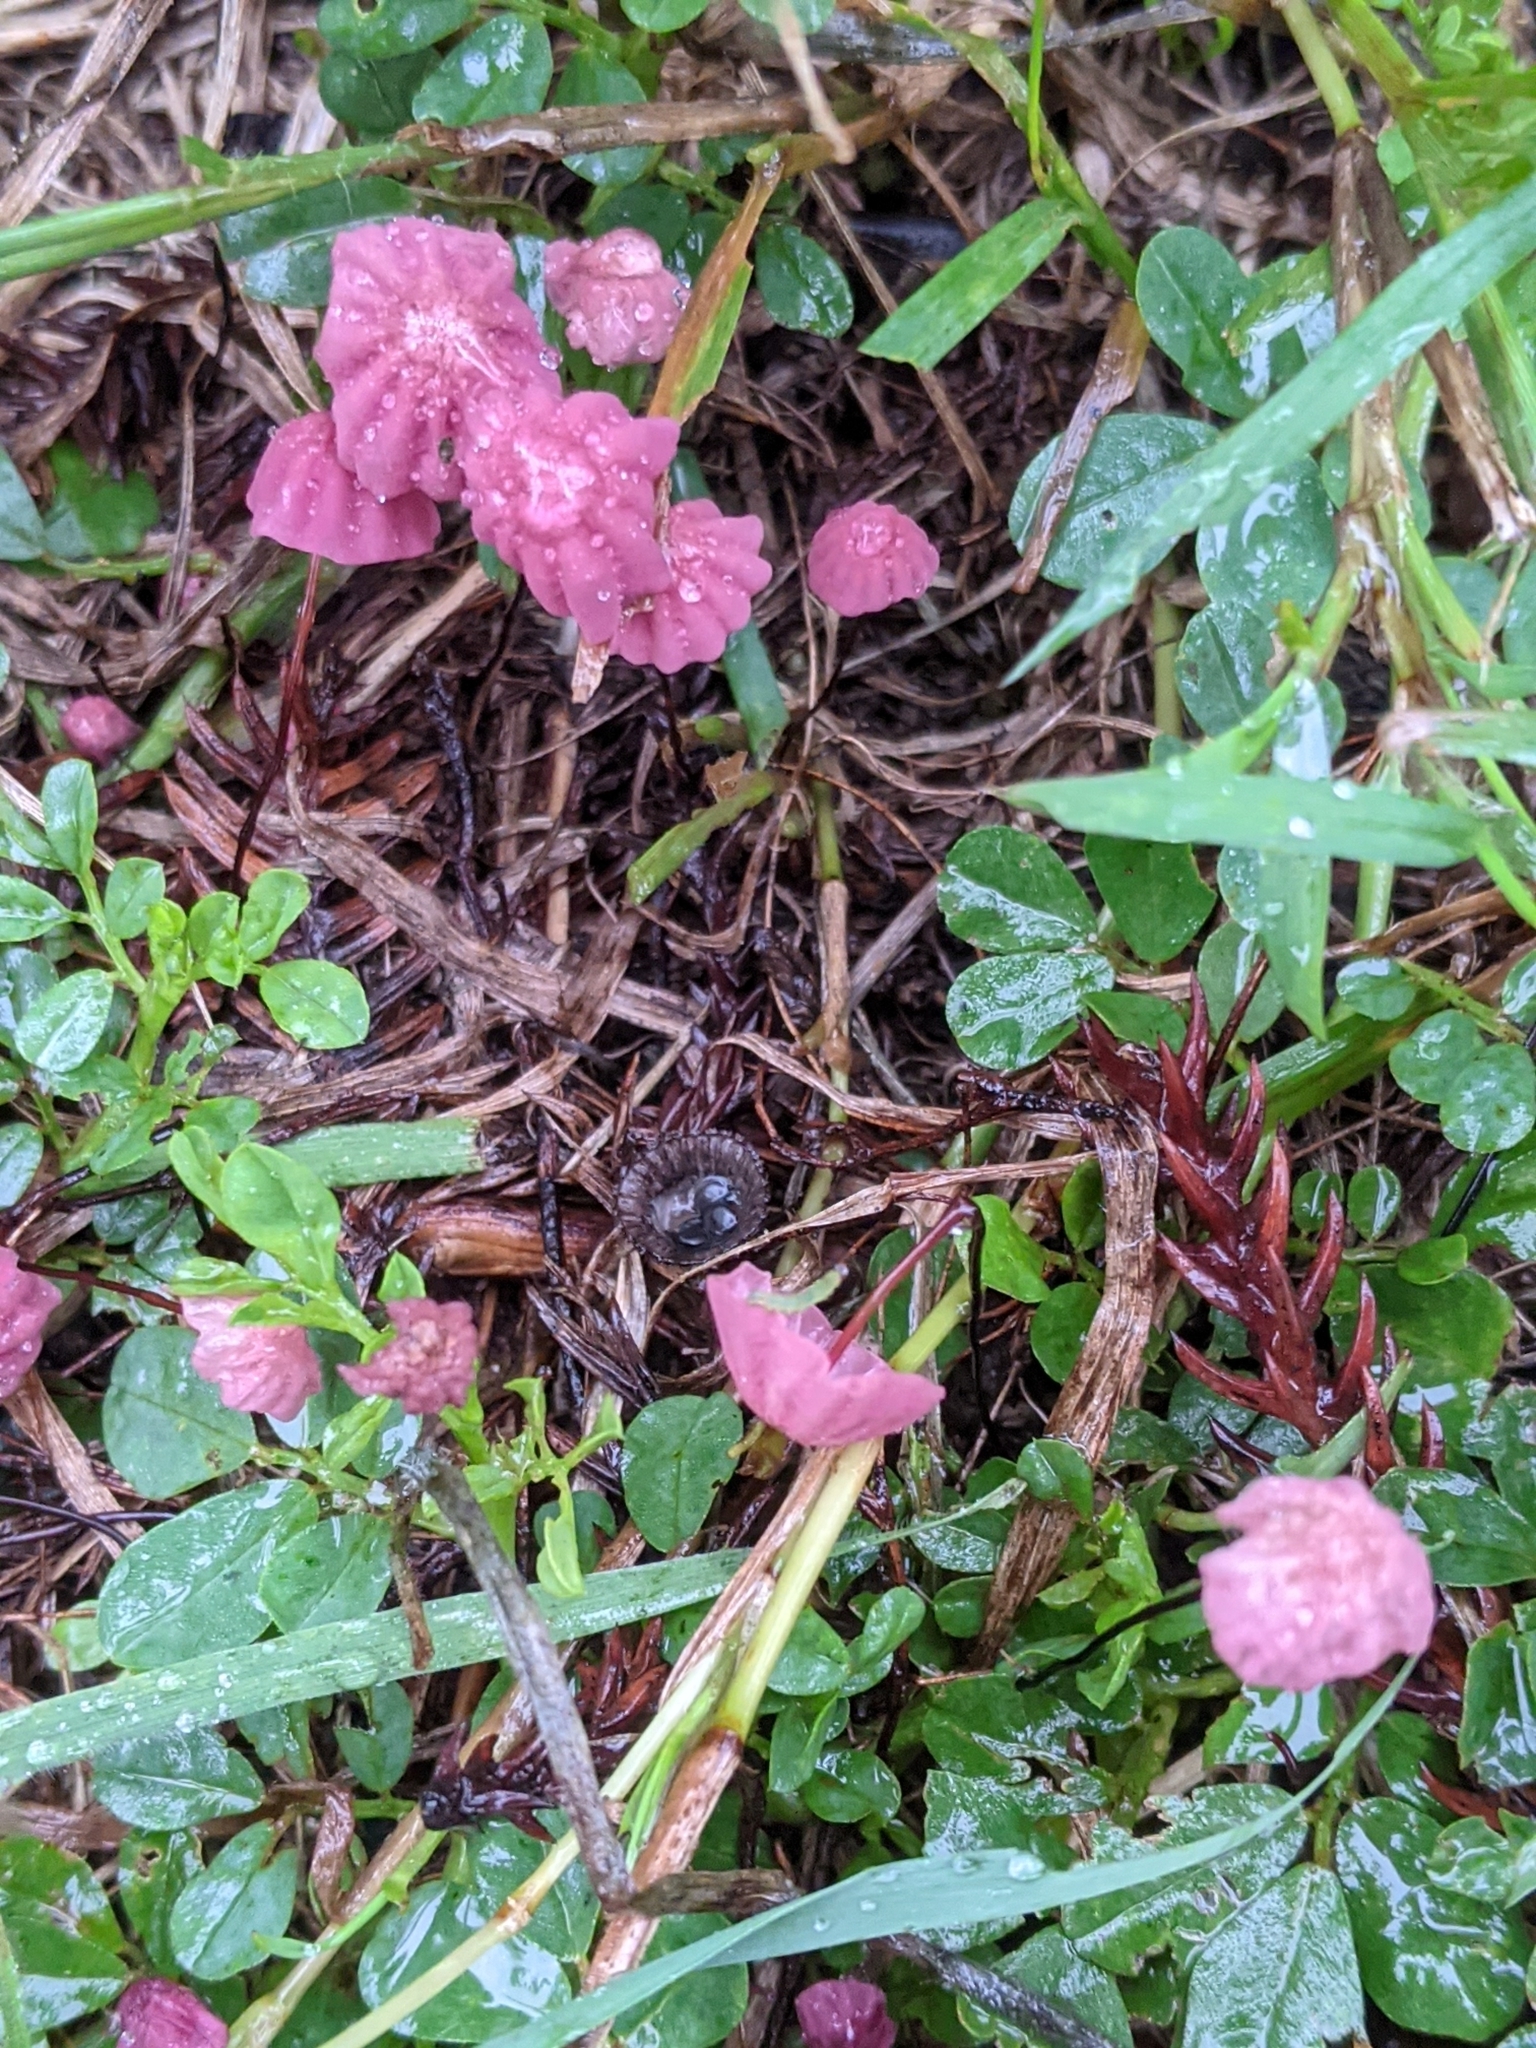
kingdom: Fungi
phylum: Basidiomycota
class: Agaricomycetes
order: Agaricales
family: Marasmiaceae
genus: Marasmius
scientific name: Marasmius haematocephalus
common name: Purple pinwheel
